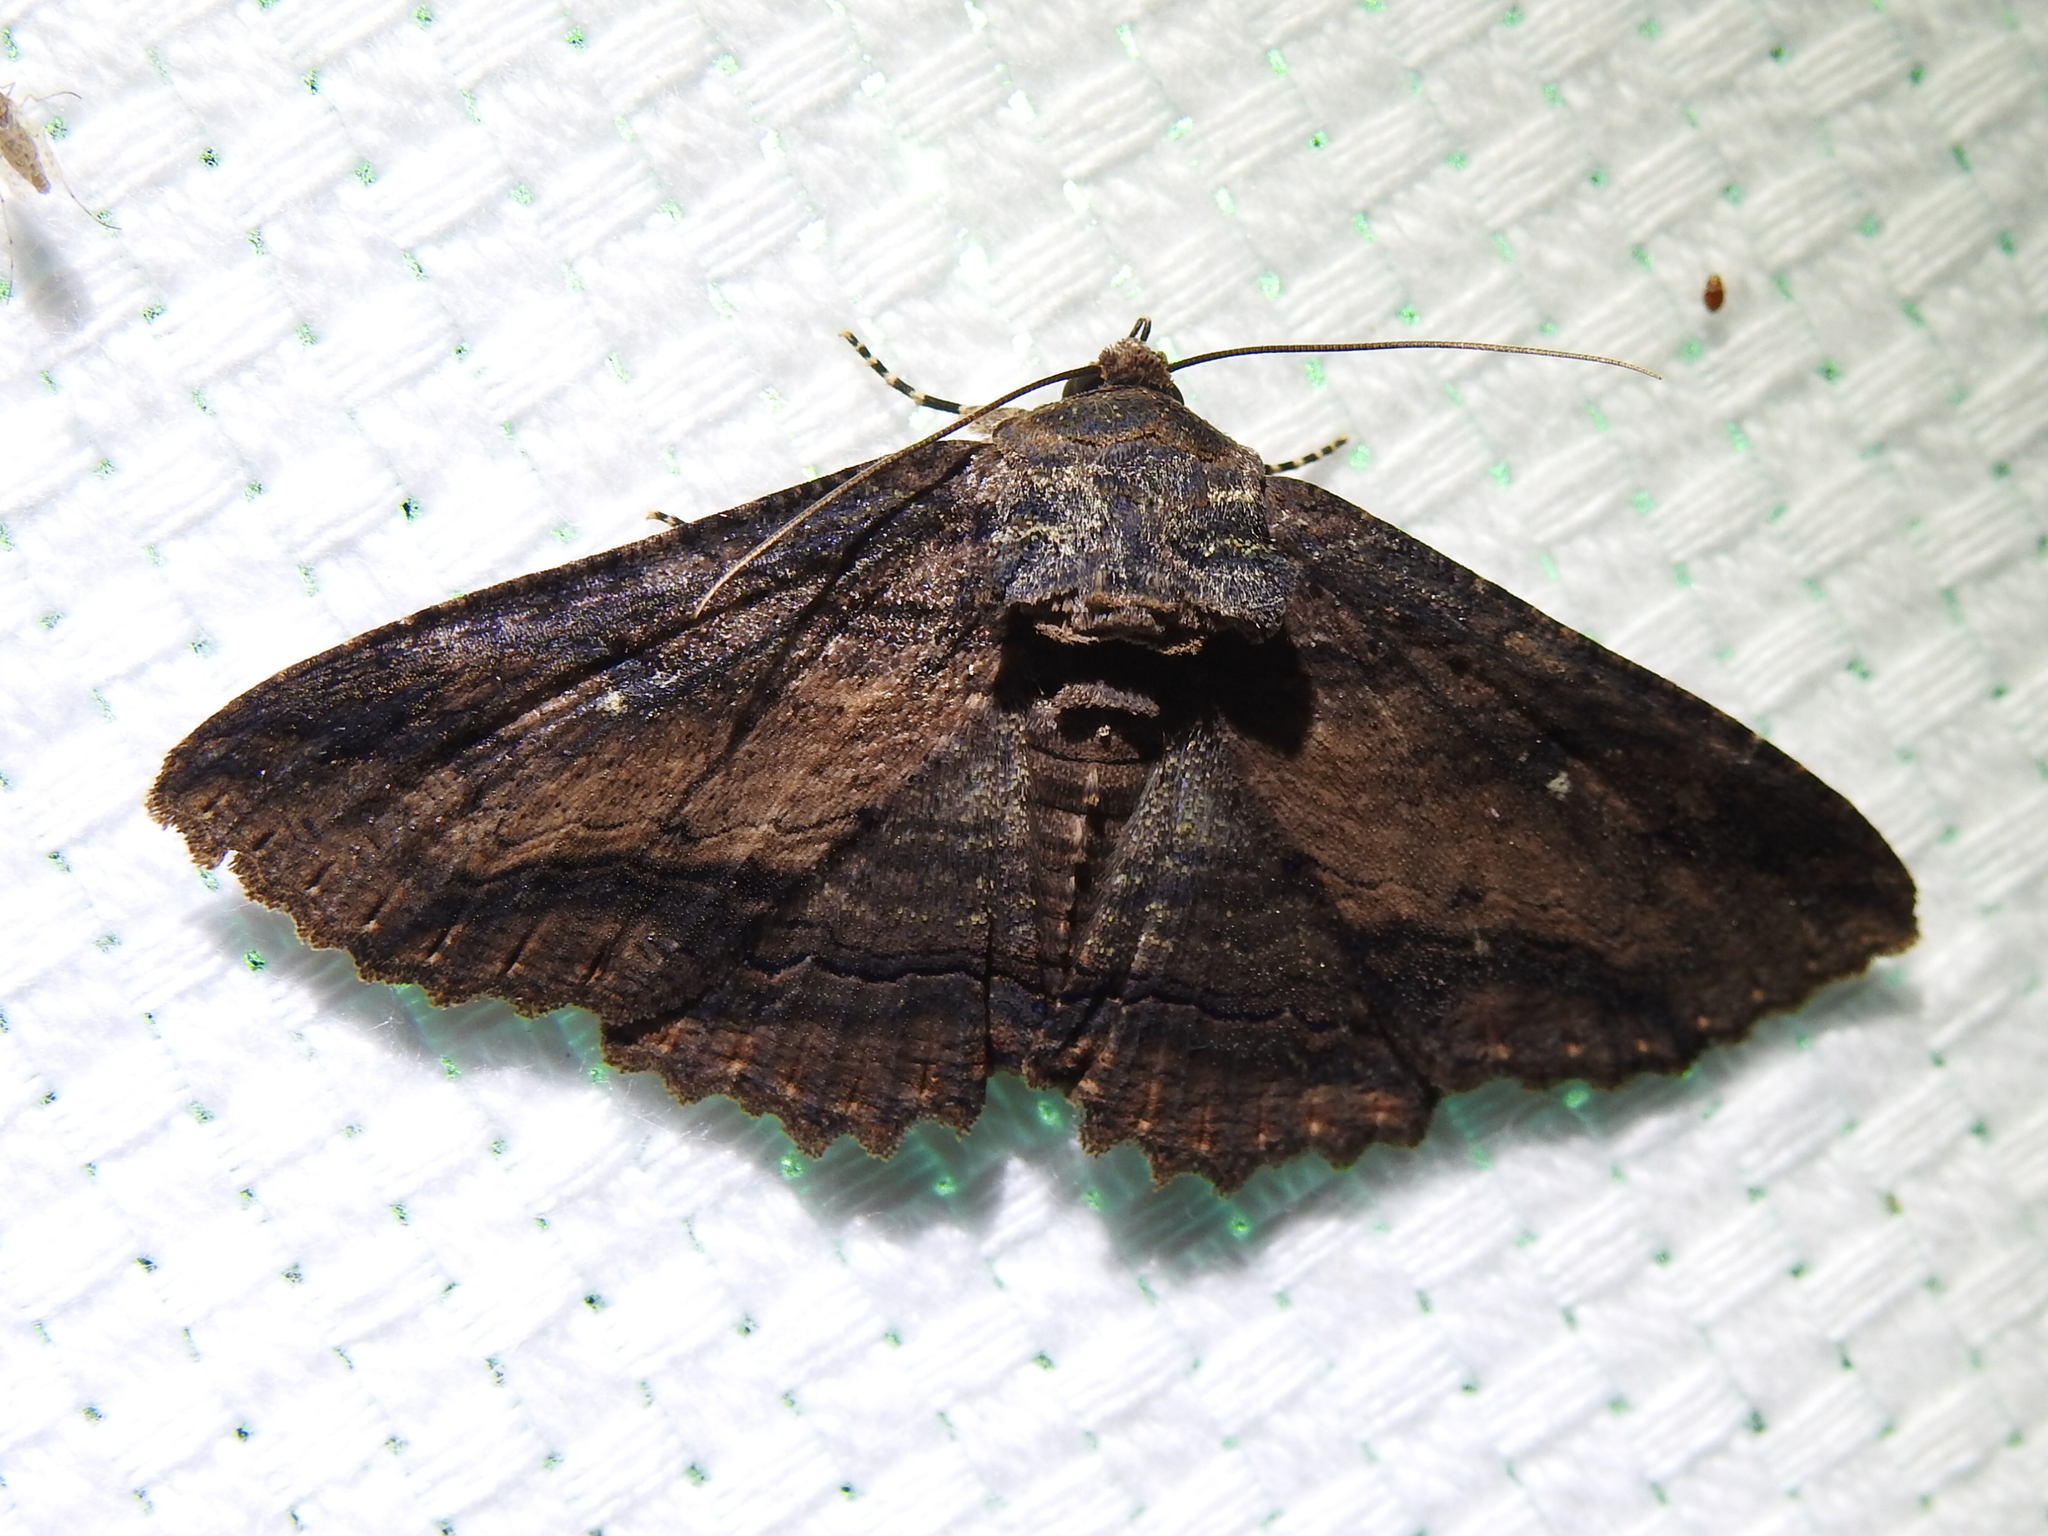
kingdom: Animalia
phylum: Arthropoda
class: Insecta
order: Lepidoptera
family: Erebidae
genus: Zale
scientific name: Zale lunata
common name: Lunate zale moth
